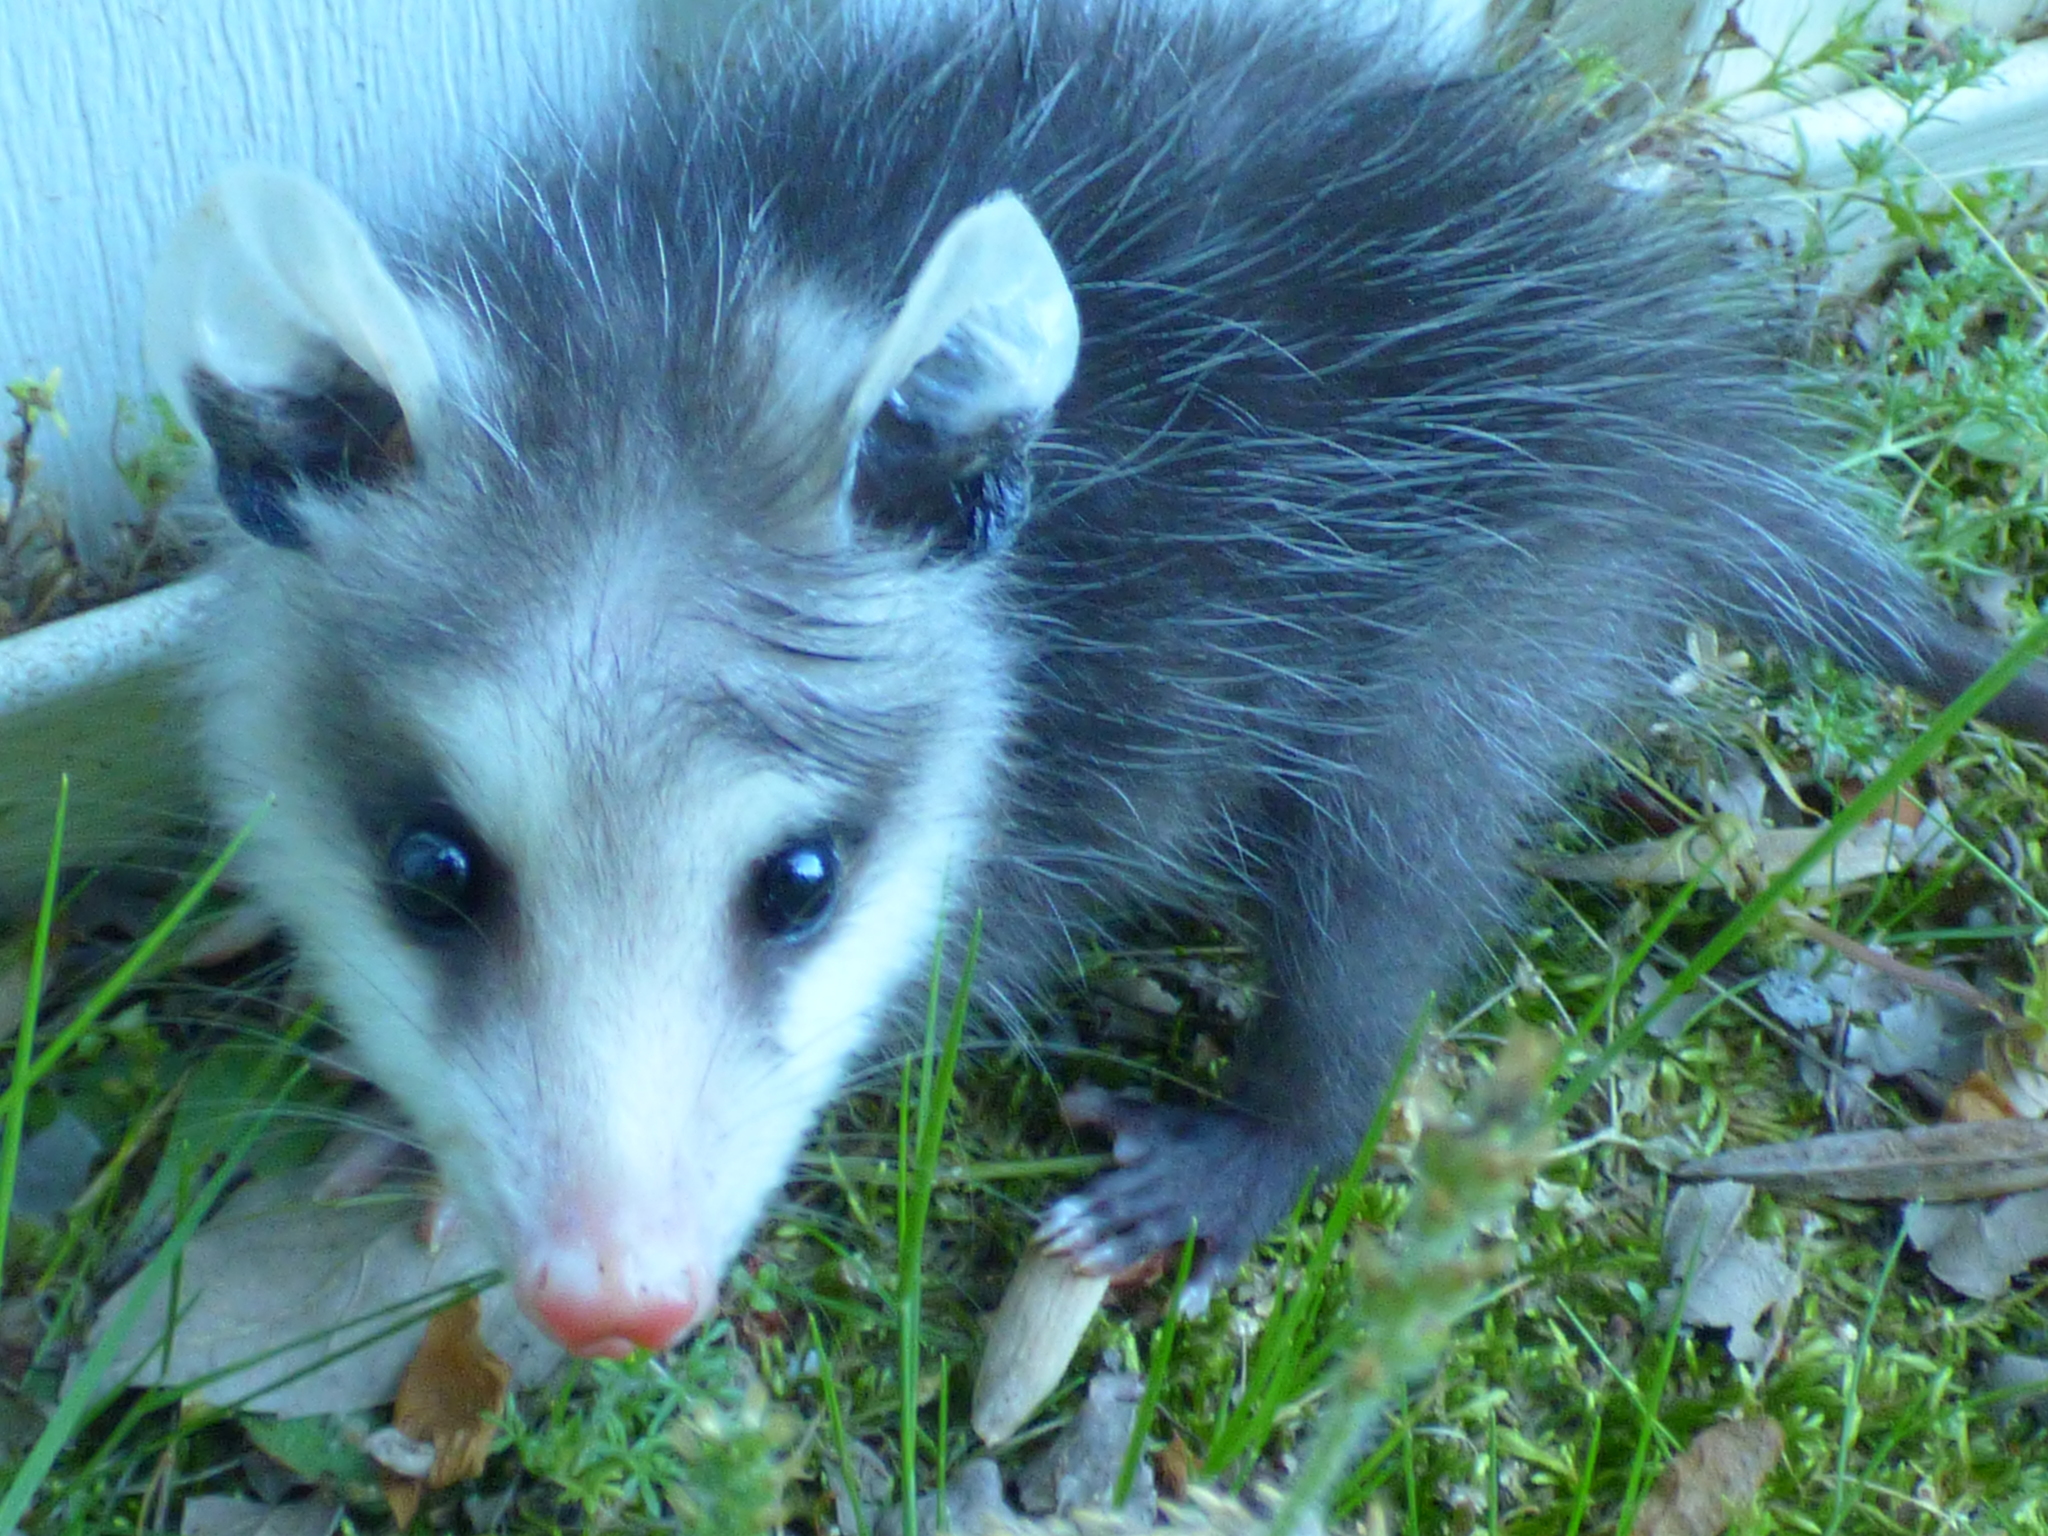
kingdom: Animalia
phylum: Chordata
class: Mammalia
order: Didelphimorphia
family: Didelphidae
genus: Didelphis
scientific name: Didelphis virginiana
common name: Virginia opossum
